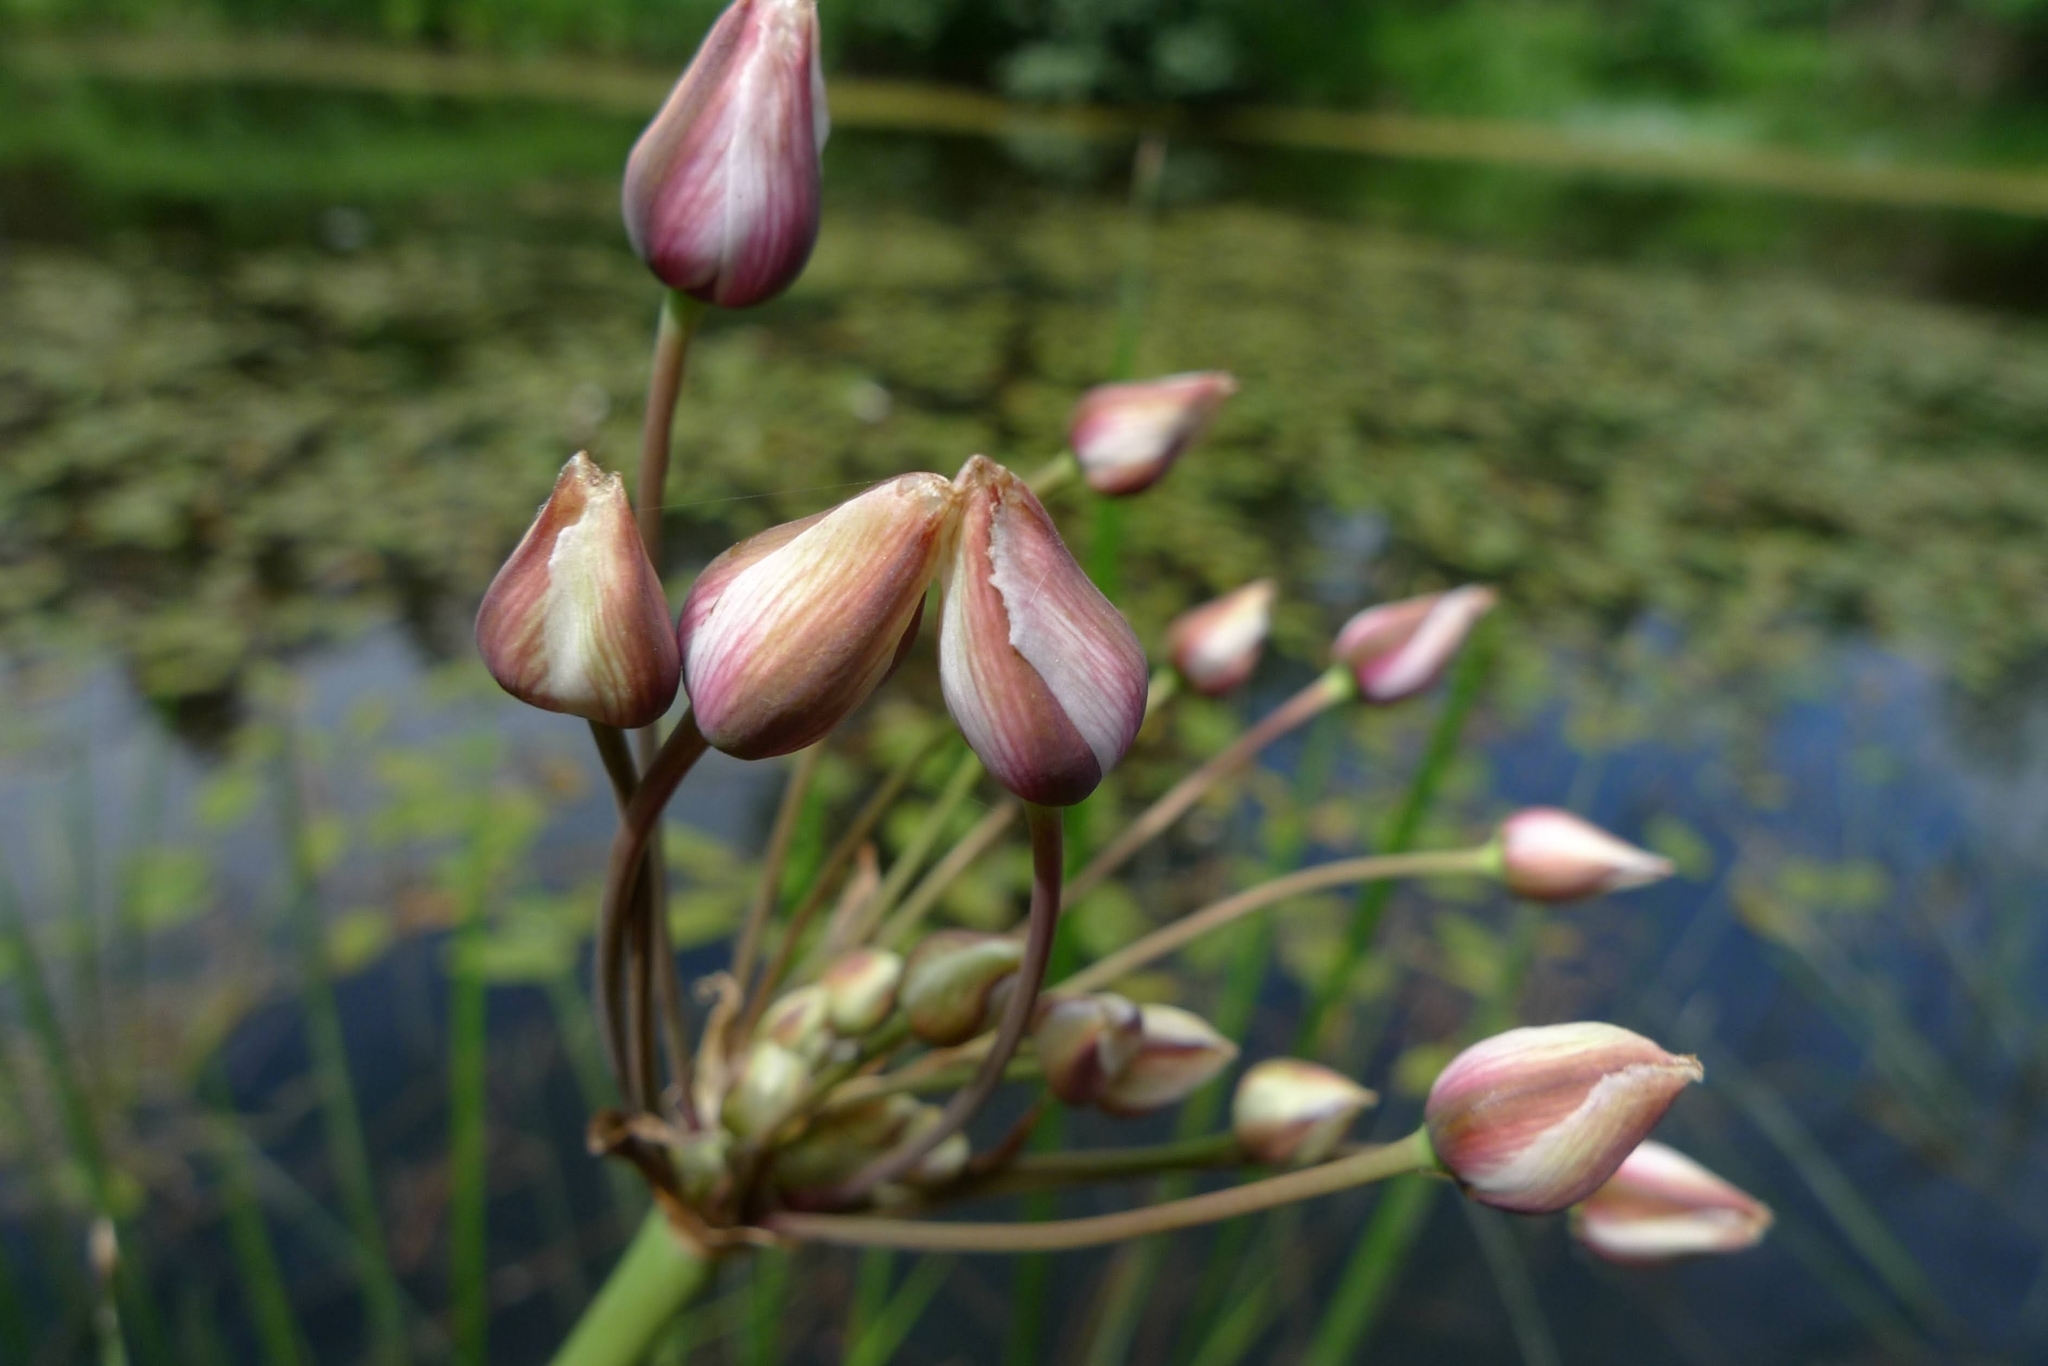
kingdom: Plantae
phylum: Tracheophyta
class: Liliopsida
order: Alismatales
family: Butomaceae
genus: Butomus
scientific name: Butomus umbellatus
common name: Flowering-rush
